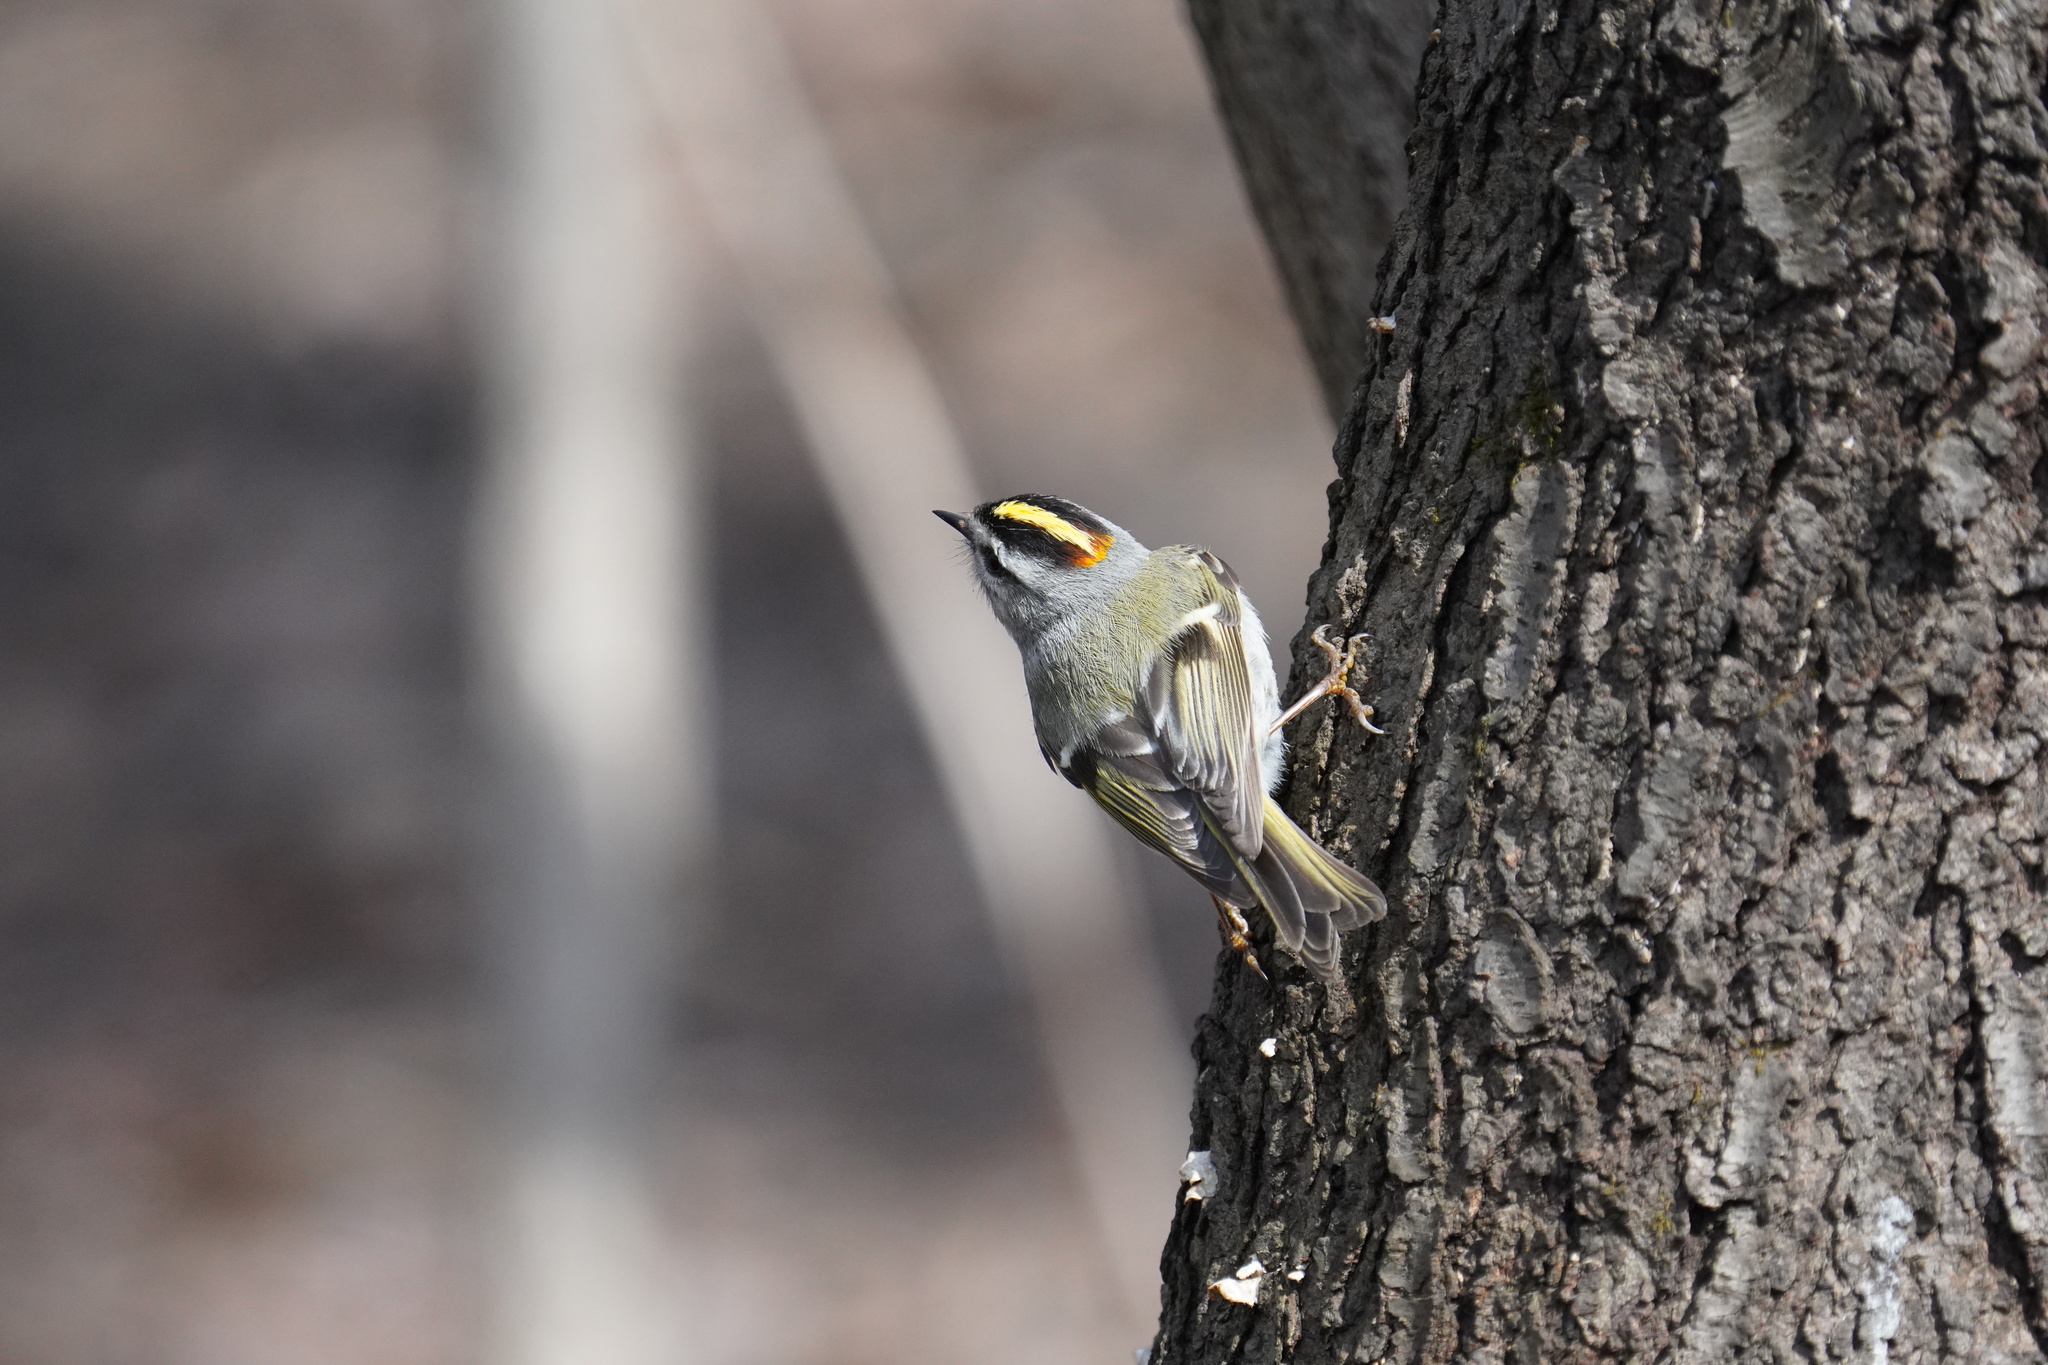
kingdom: Animalia
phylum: Chordata
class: Aves
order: Passeriformes
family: Regulidae
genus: Regulus
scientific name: Regulus satrapa
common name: Golden-crowned kinglet
